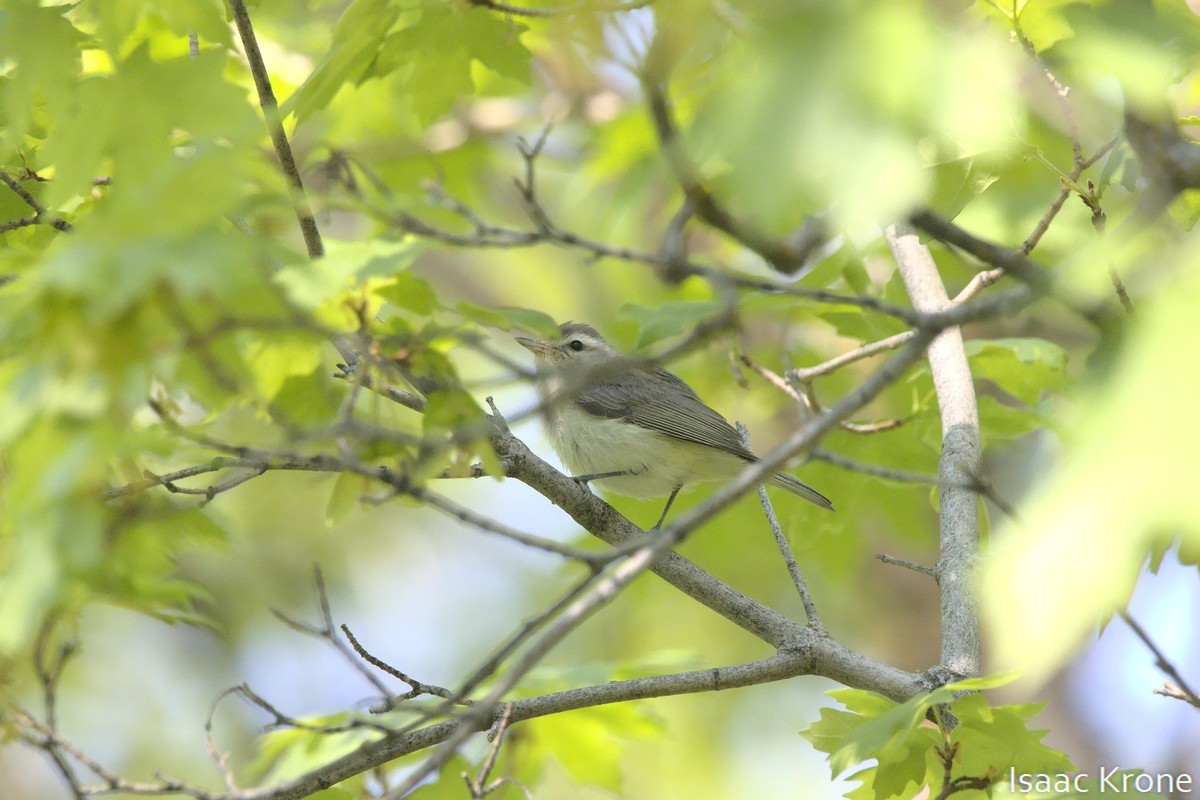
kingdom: Animalia
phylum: Chordata
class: Aves
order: Passeriformes
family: Vireonidae
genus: Vireo
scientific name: Vireo gilvus
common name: Warbling vireo
